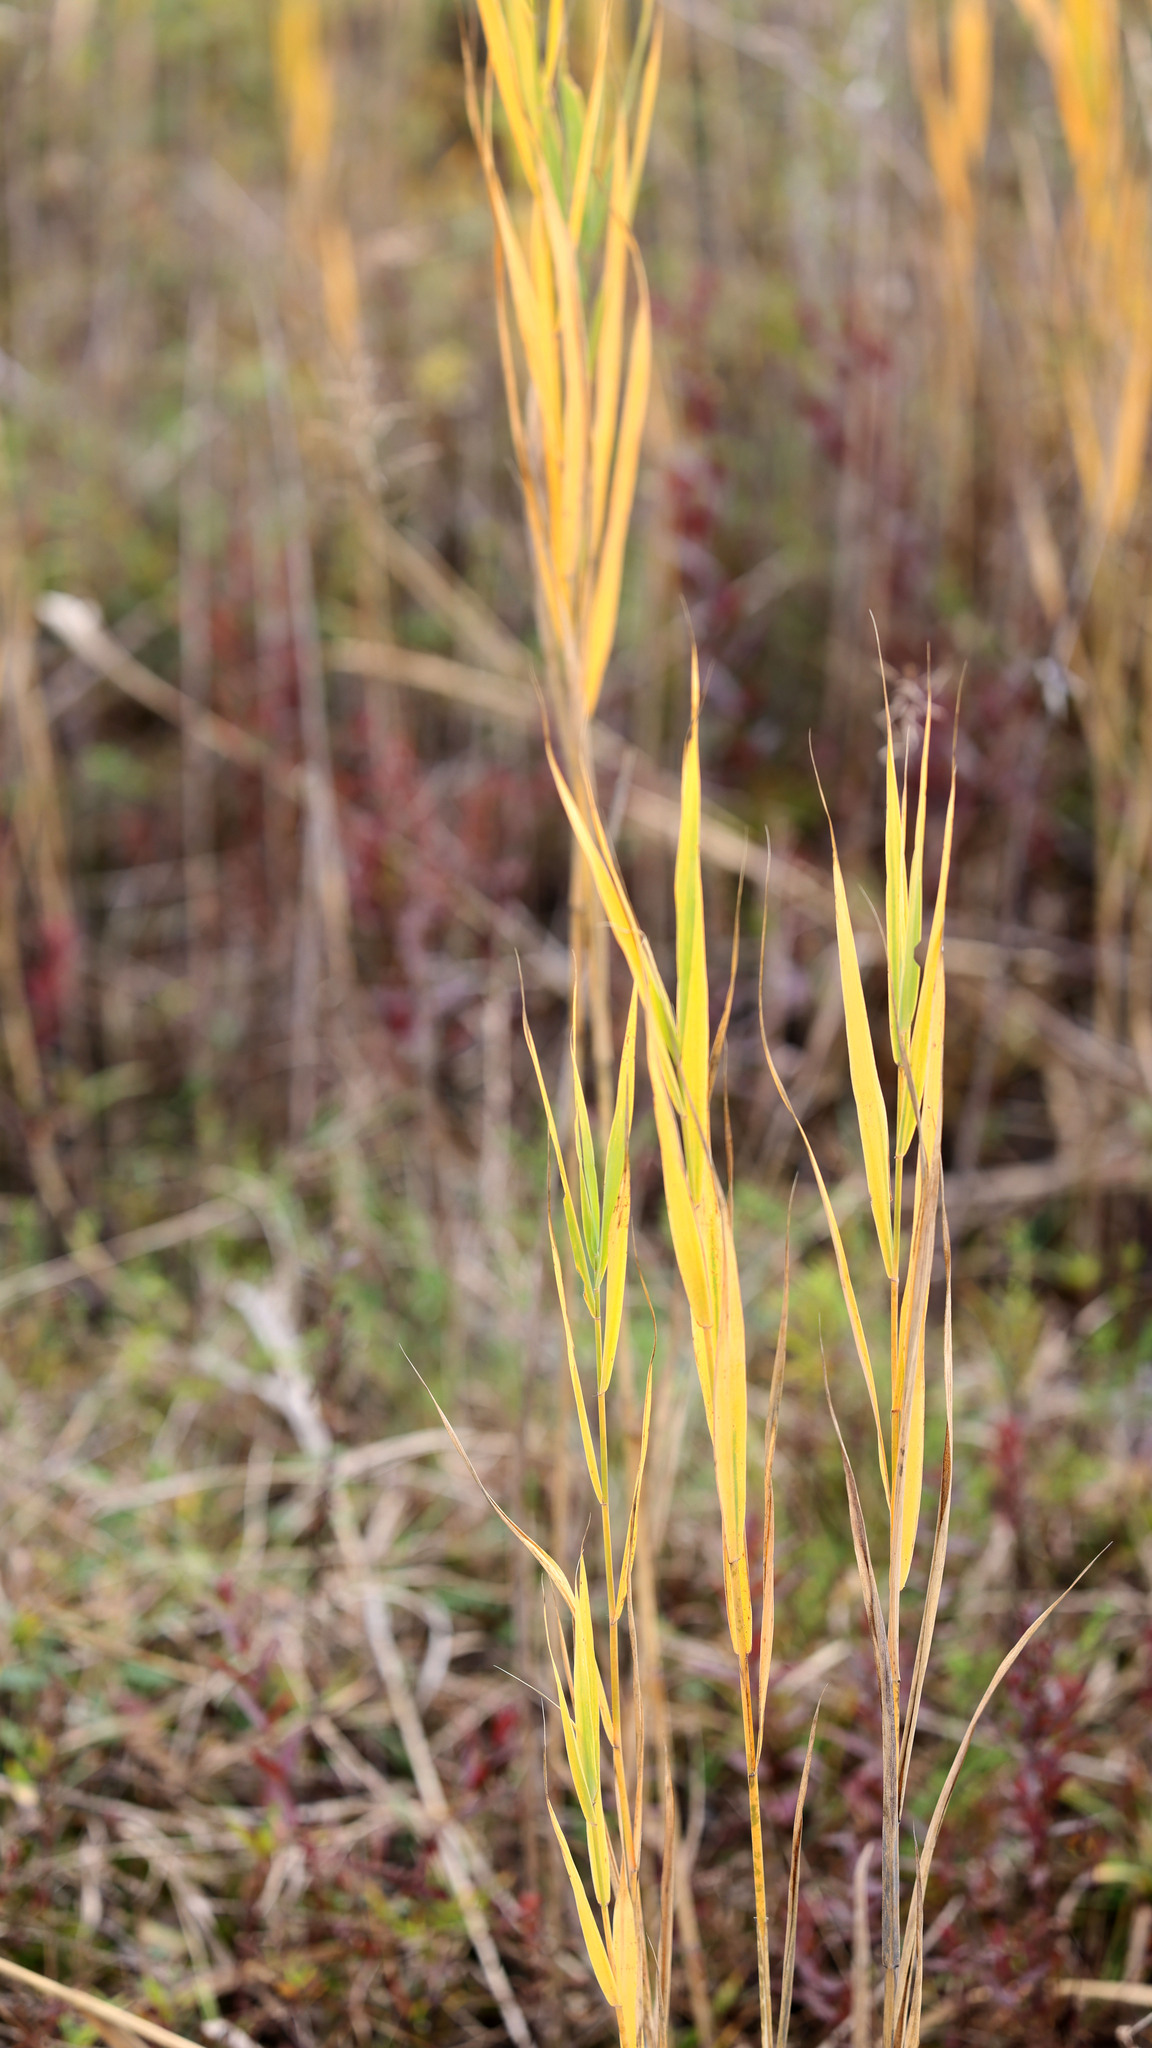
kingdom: Plantae
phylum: Tracheophyta
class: Liliopsida
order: Poales
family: Poaceae
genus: Phragmites
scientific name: Phragmites australis
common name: Common reed
